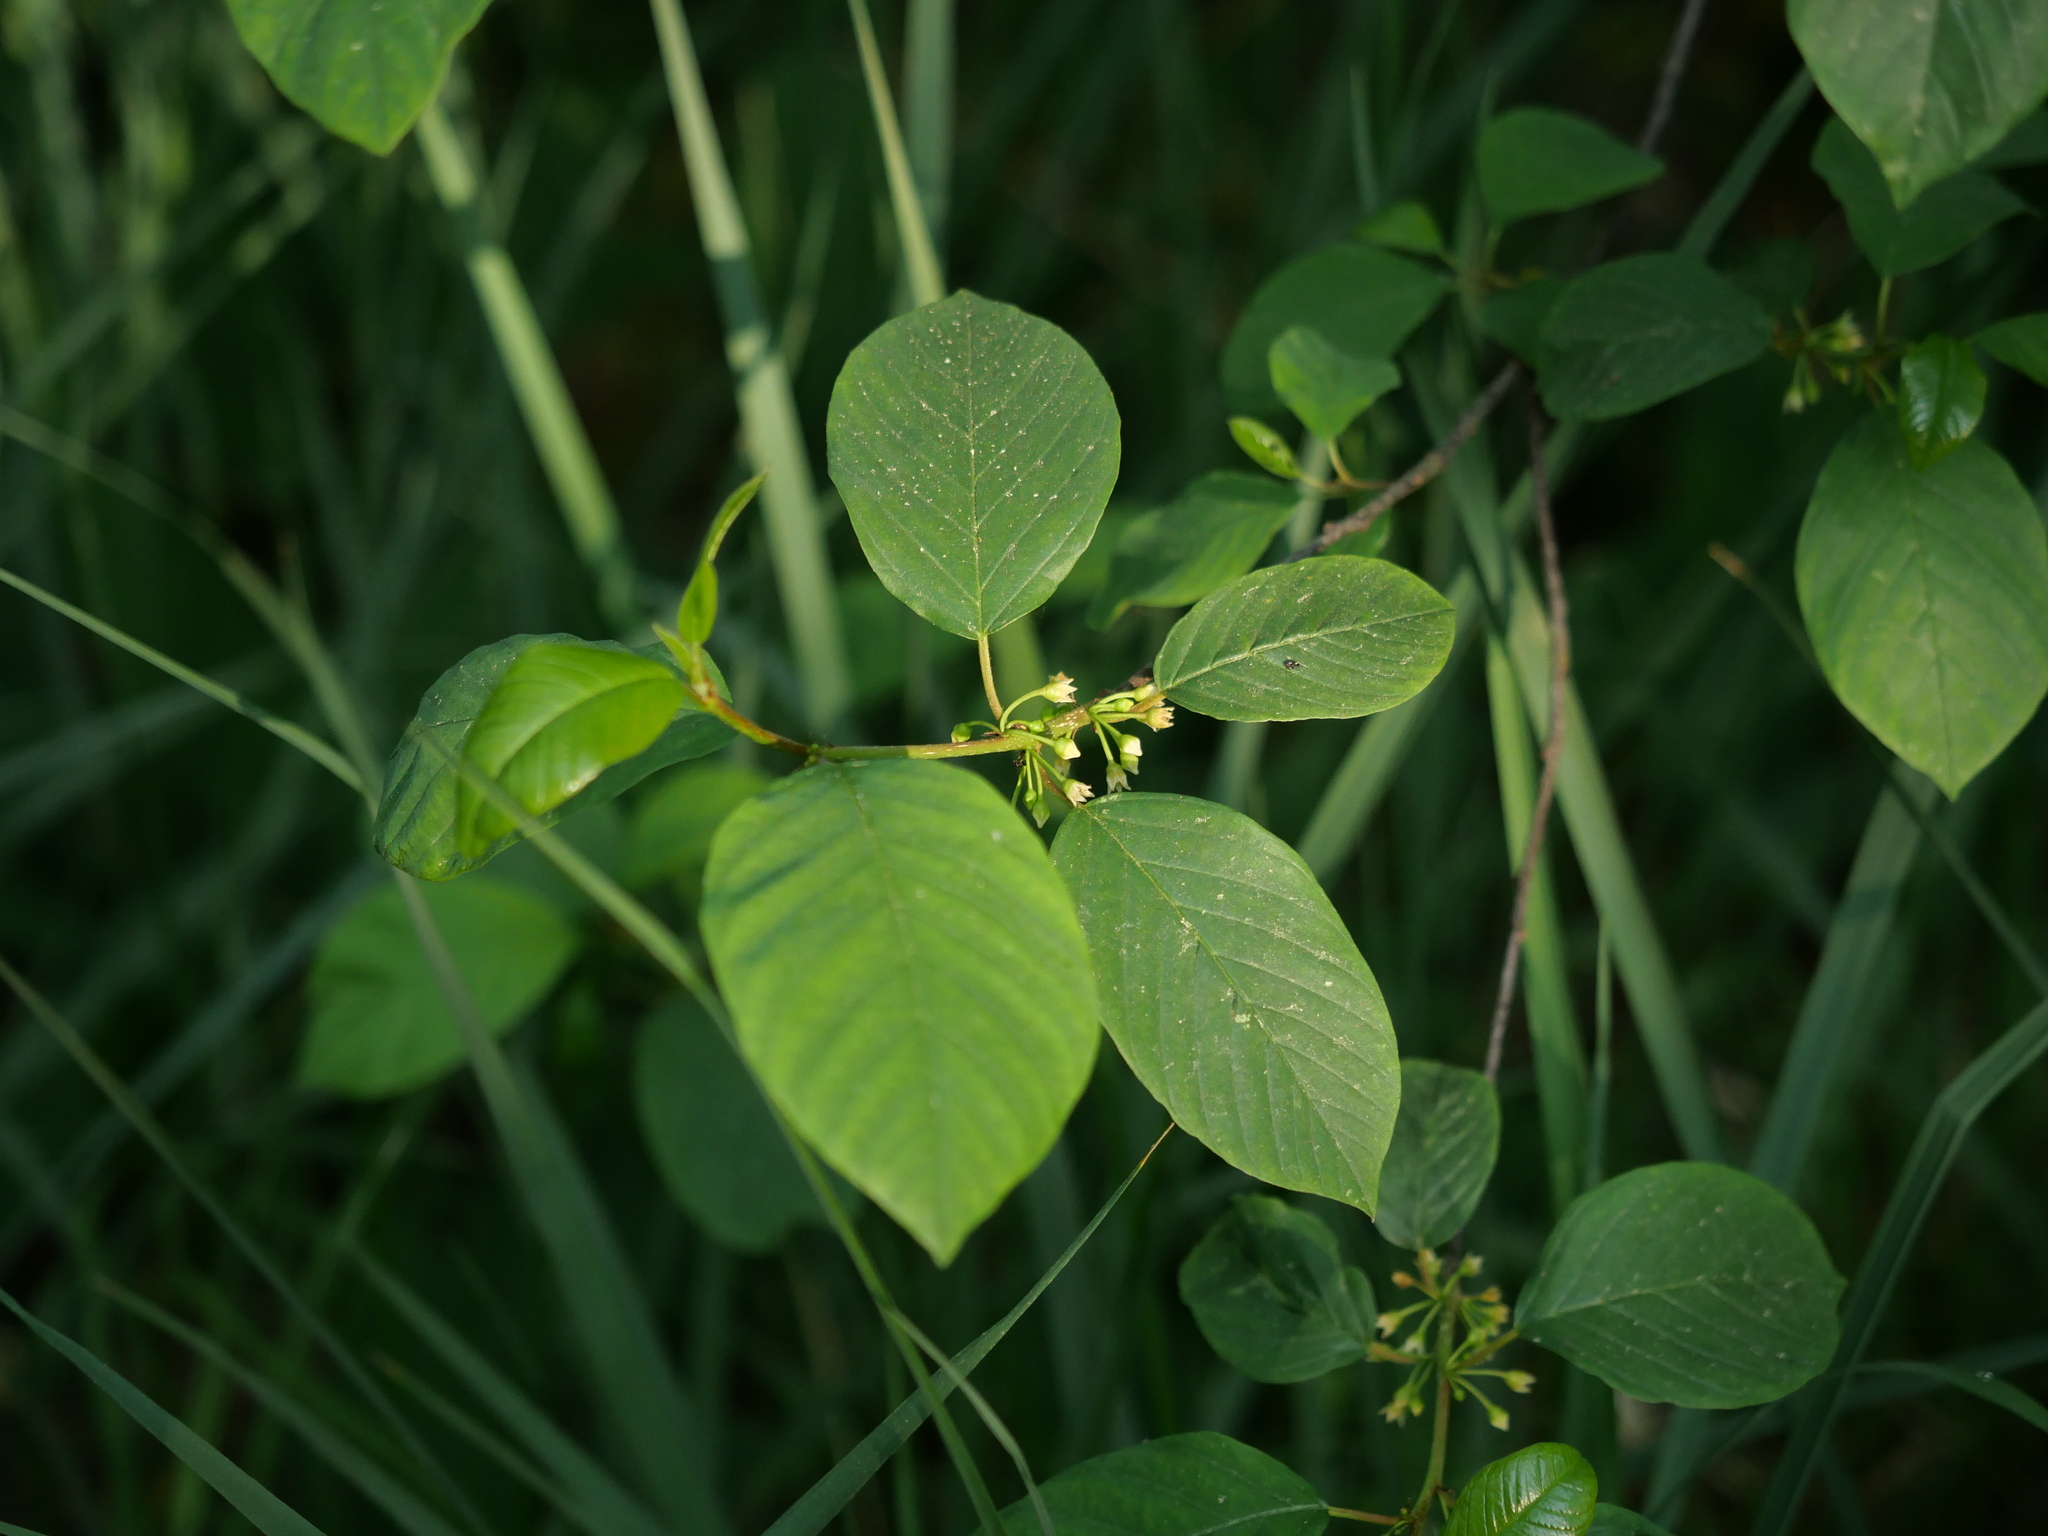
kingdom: Plantae
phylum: Tracheophyta
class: Magnoliopsida
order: Rosales
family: Rhamnaceae
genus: Frangula
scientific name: Frangula alnus
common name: Alder buckthorn
